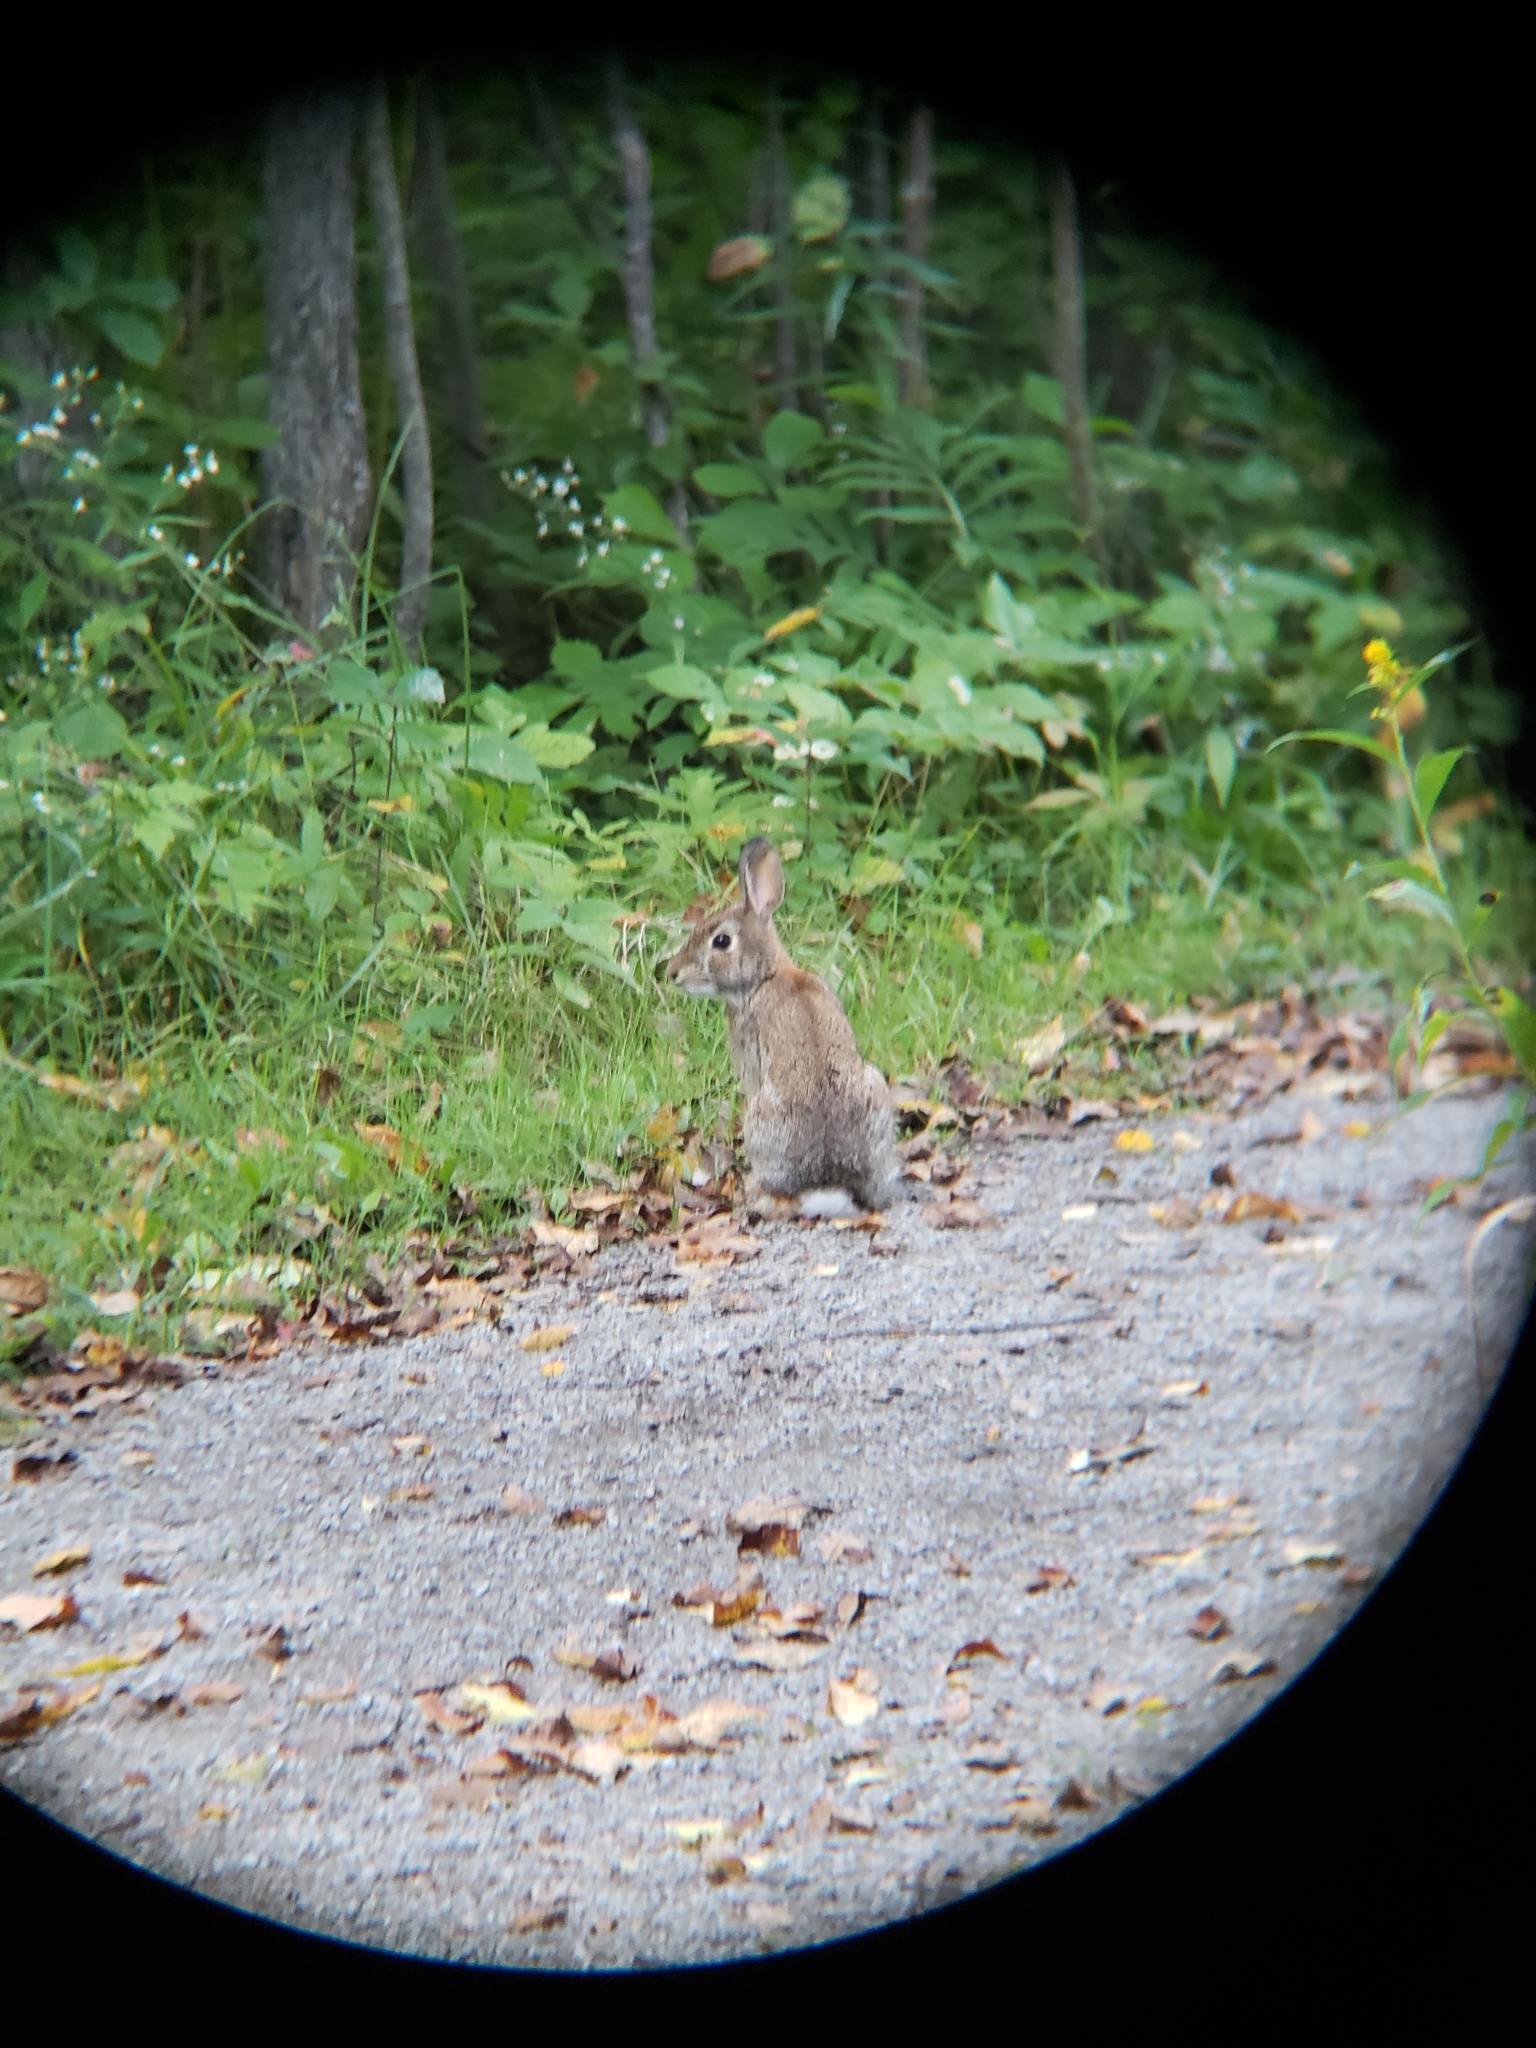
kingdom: Animalia
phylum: Chordata
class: Mammalia
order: Lagomorpha
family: Leporidae
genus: Sylvilagus
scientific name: Sylvilagus floridanus
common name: Eastern cottontail
